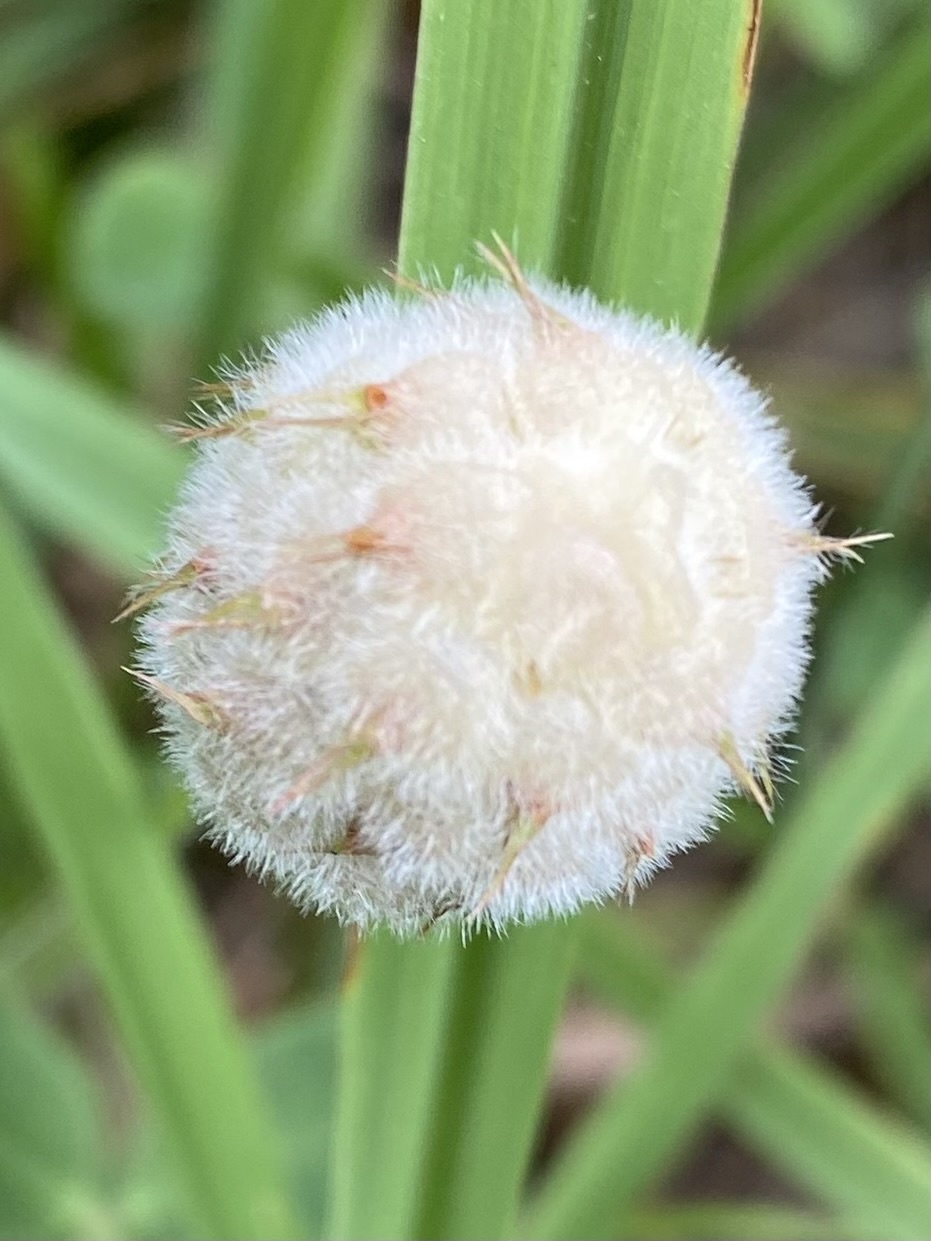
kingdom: Plantae
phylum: Tracheophyta
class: Magnoliopsida
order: Fabales
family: Fabaceae
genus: Trifolium
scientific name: Trifolium fragiferum
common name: Strawberry clover
